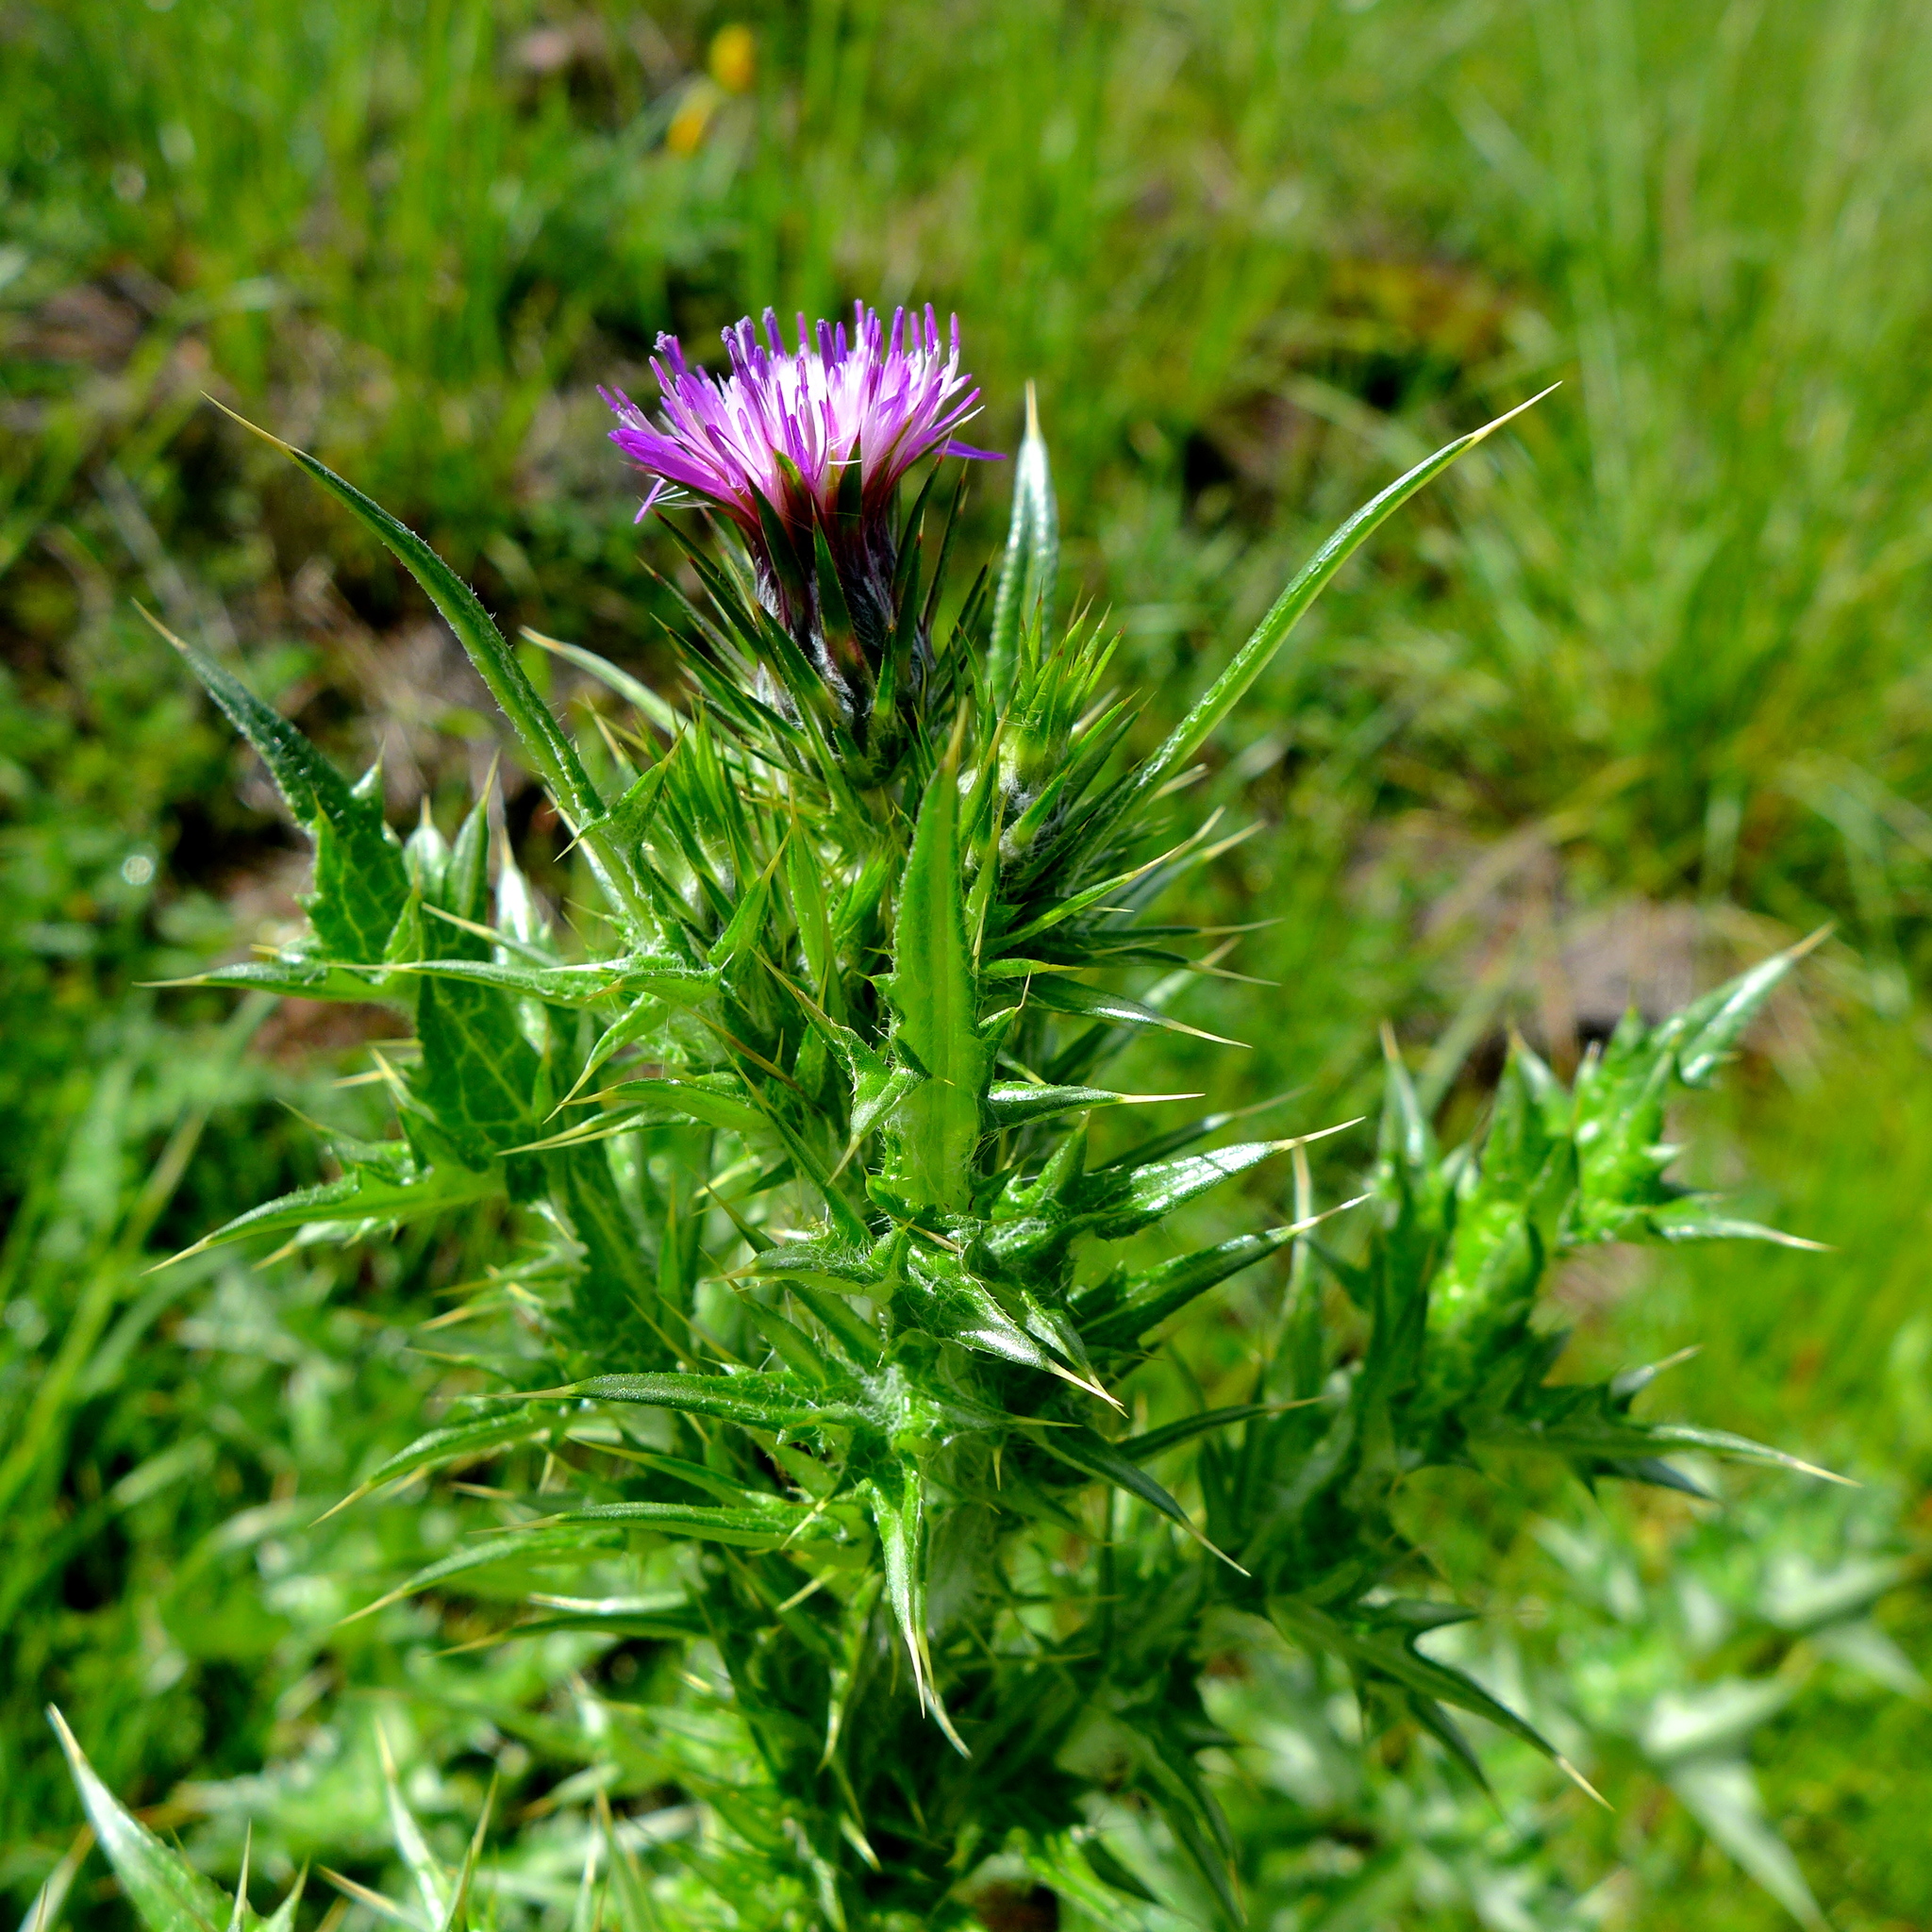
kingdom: Plantae
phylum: Tracheophyta
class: Magnoliopsida
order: Asterales
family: Asteraceae
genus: Carduus
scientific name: Carduus pycnocephalus
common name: Plymouth thistle
